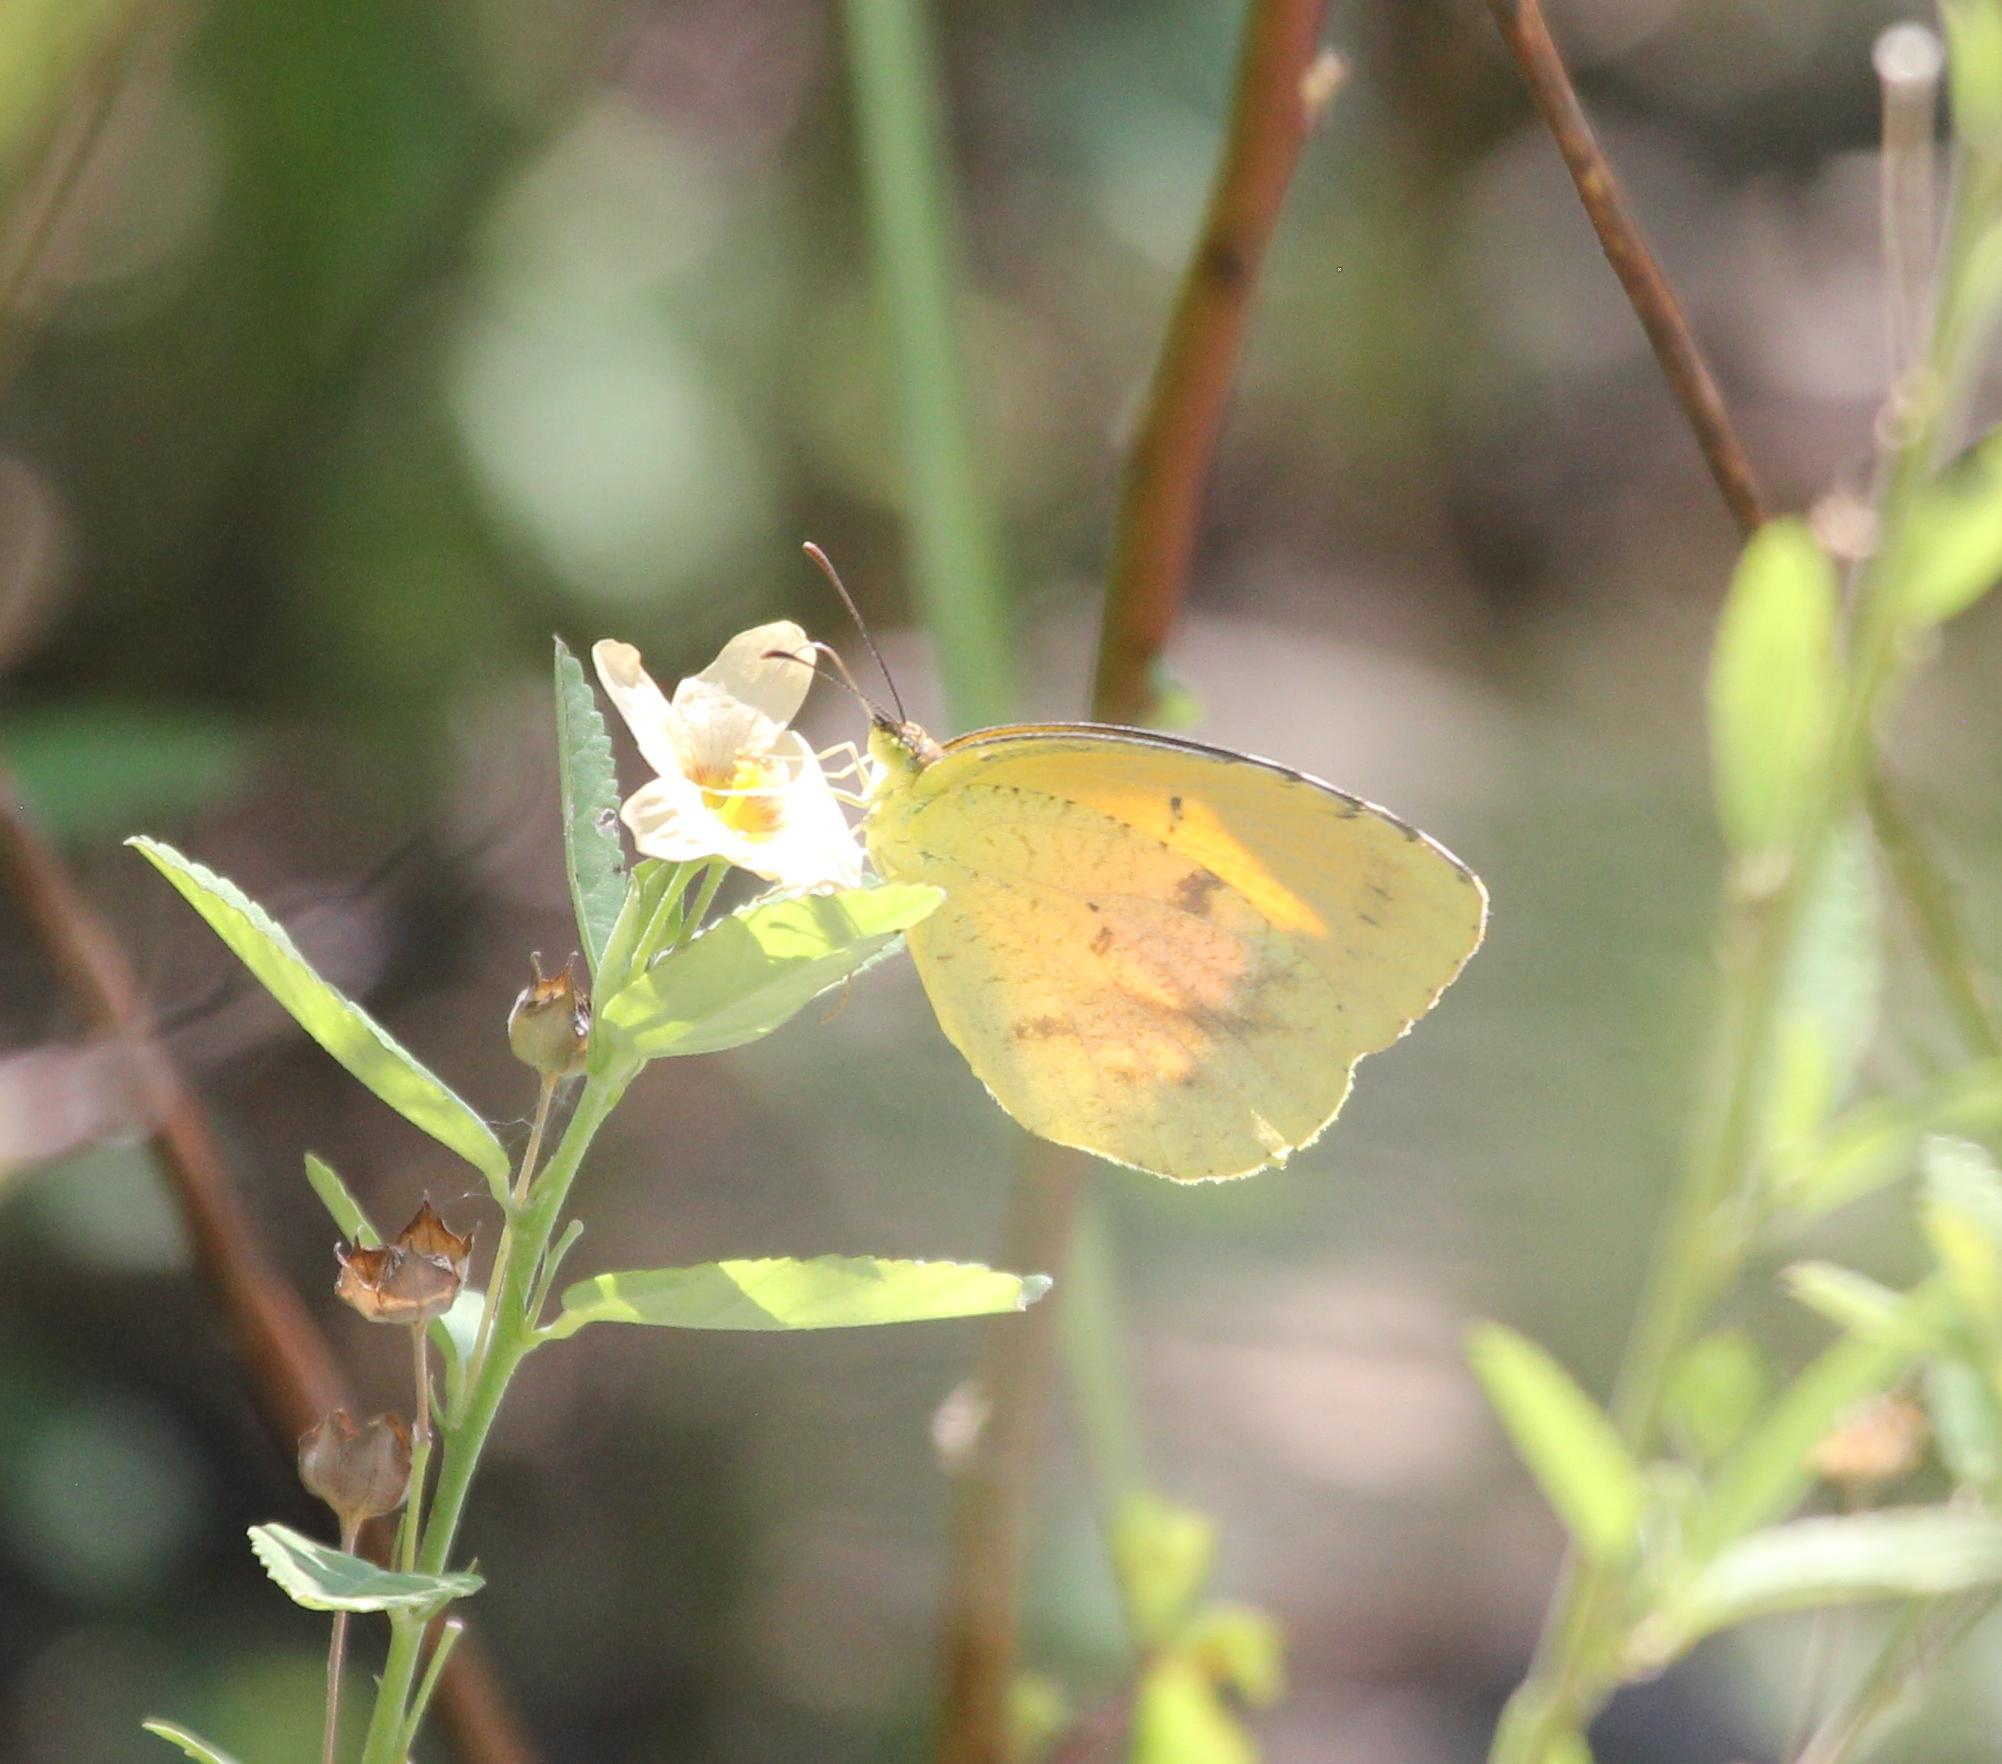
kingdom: Animalia
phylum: Arthropoda
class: Insecta
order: Lepidoptera
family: Pieridae
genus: Abaeis
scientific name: Abaeis nicippe
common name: Sleepy orange
